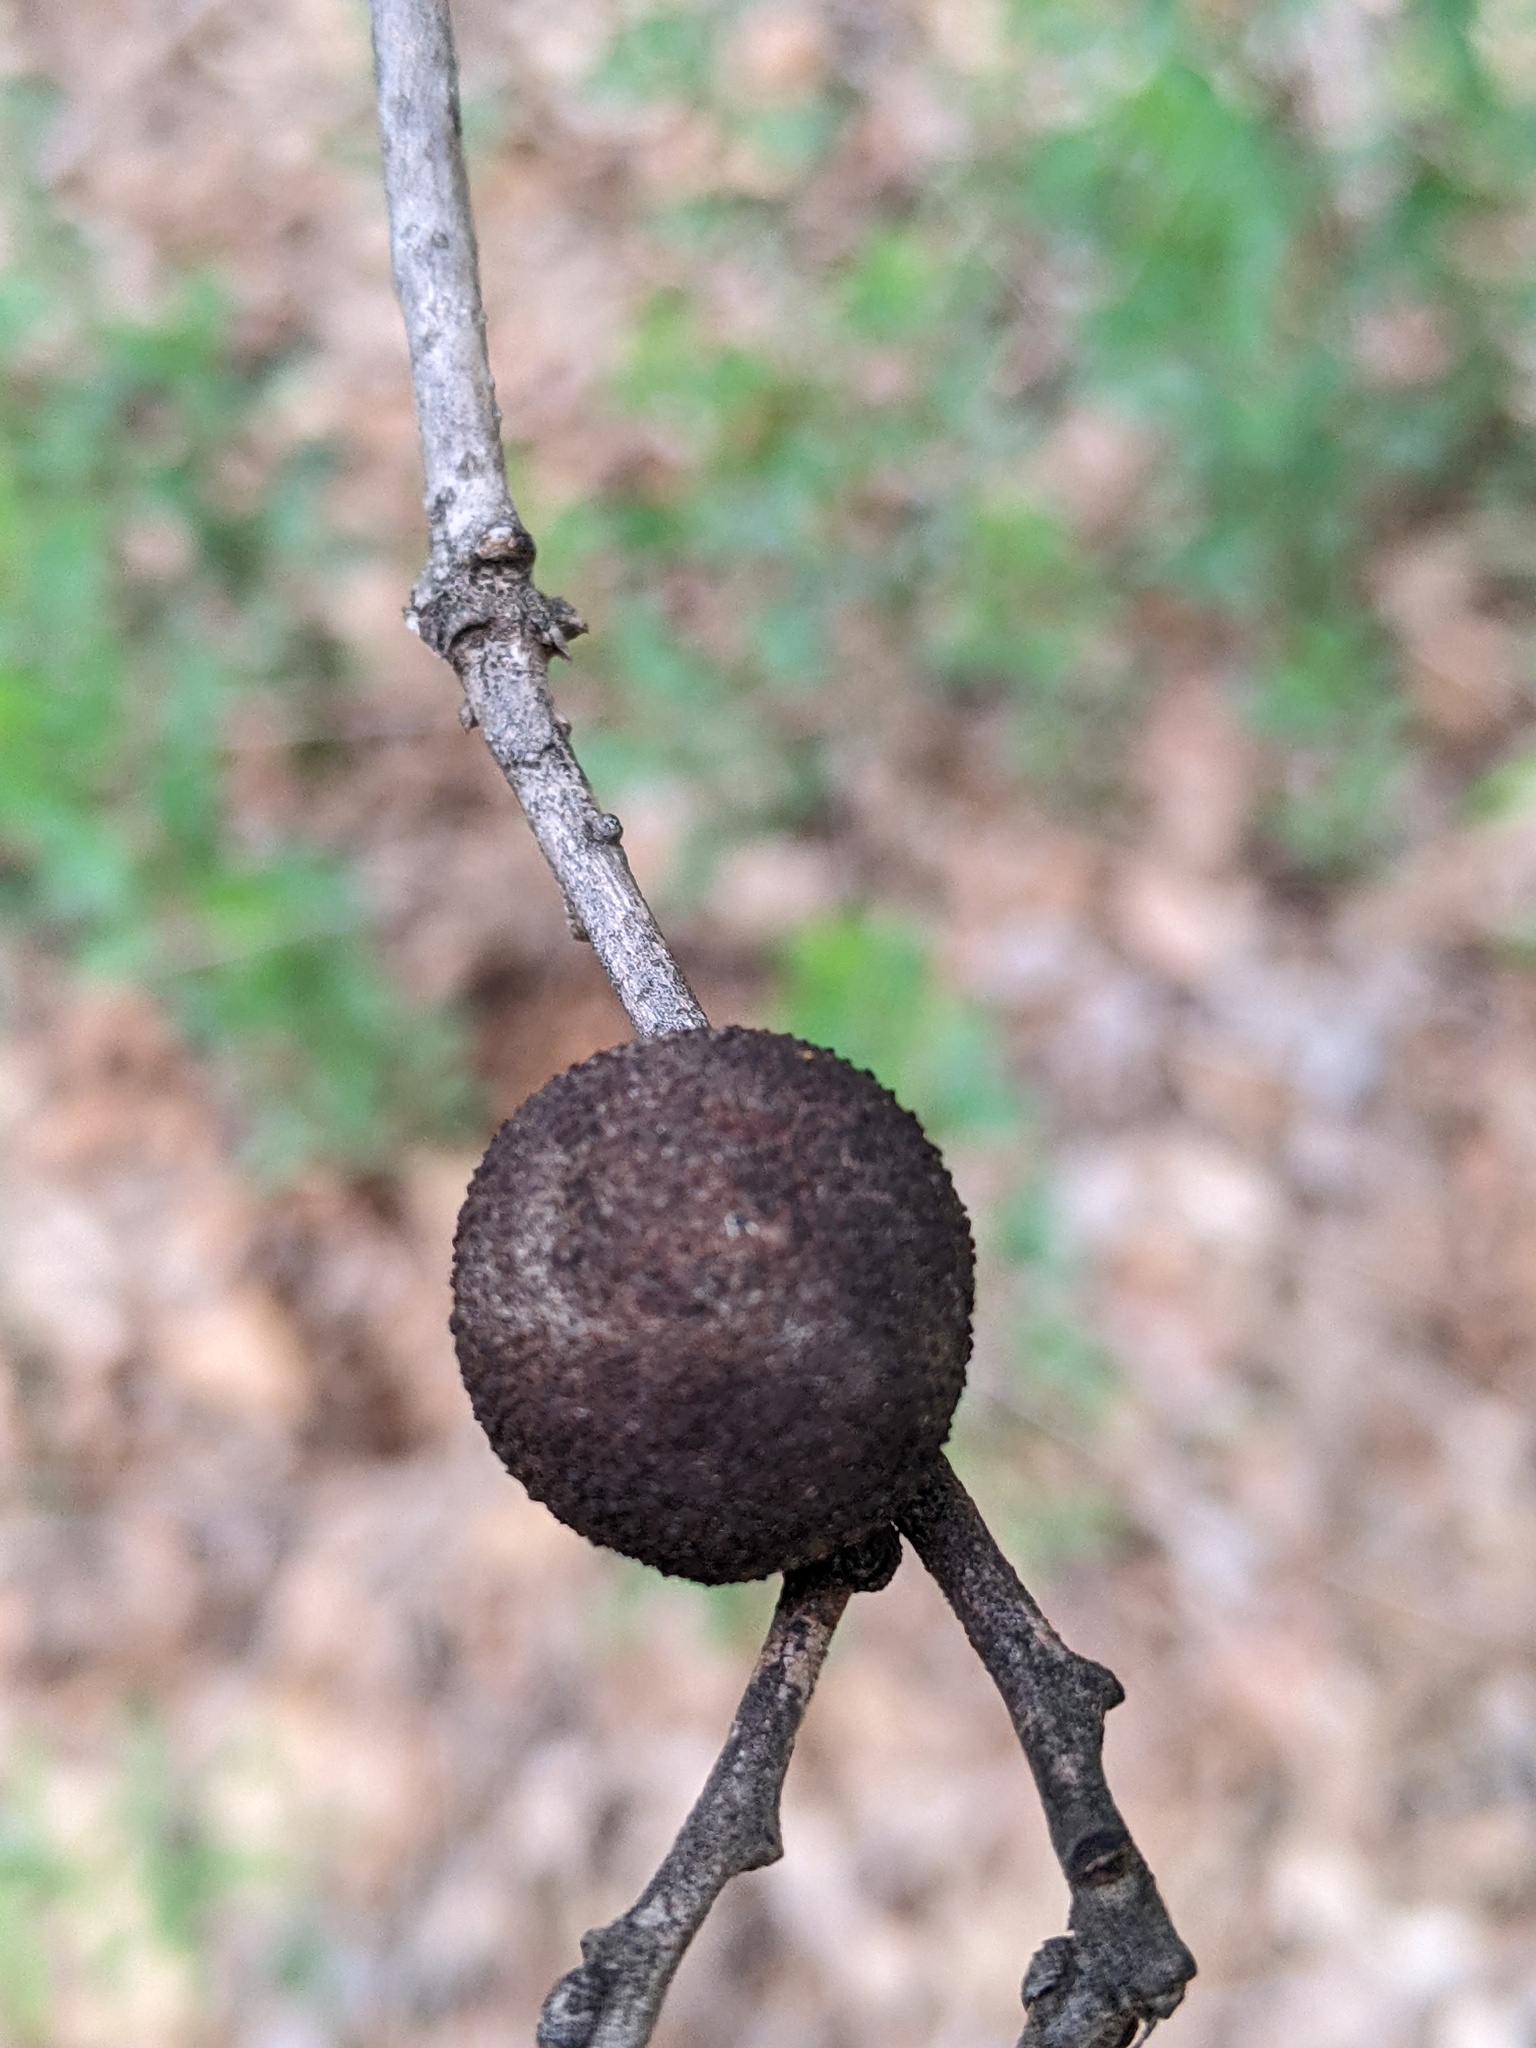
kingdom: Animalia
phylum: Arthropoda
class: Insecta
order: Hymenoptera
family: Cynipidae
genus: Amphibolips
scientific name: Amphibolips
